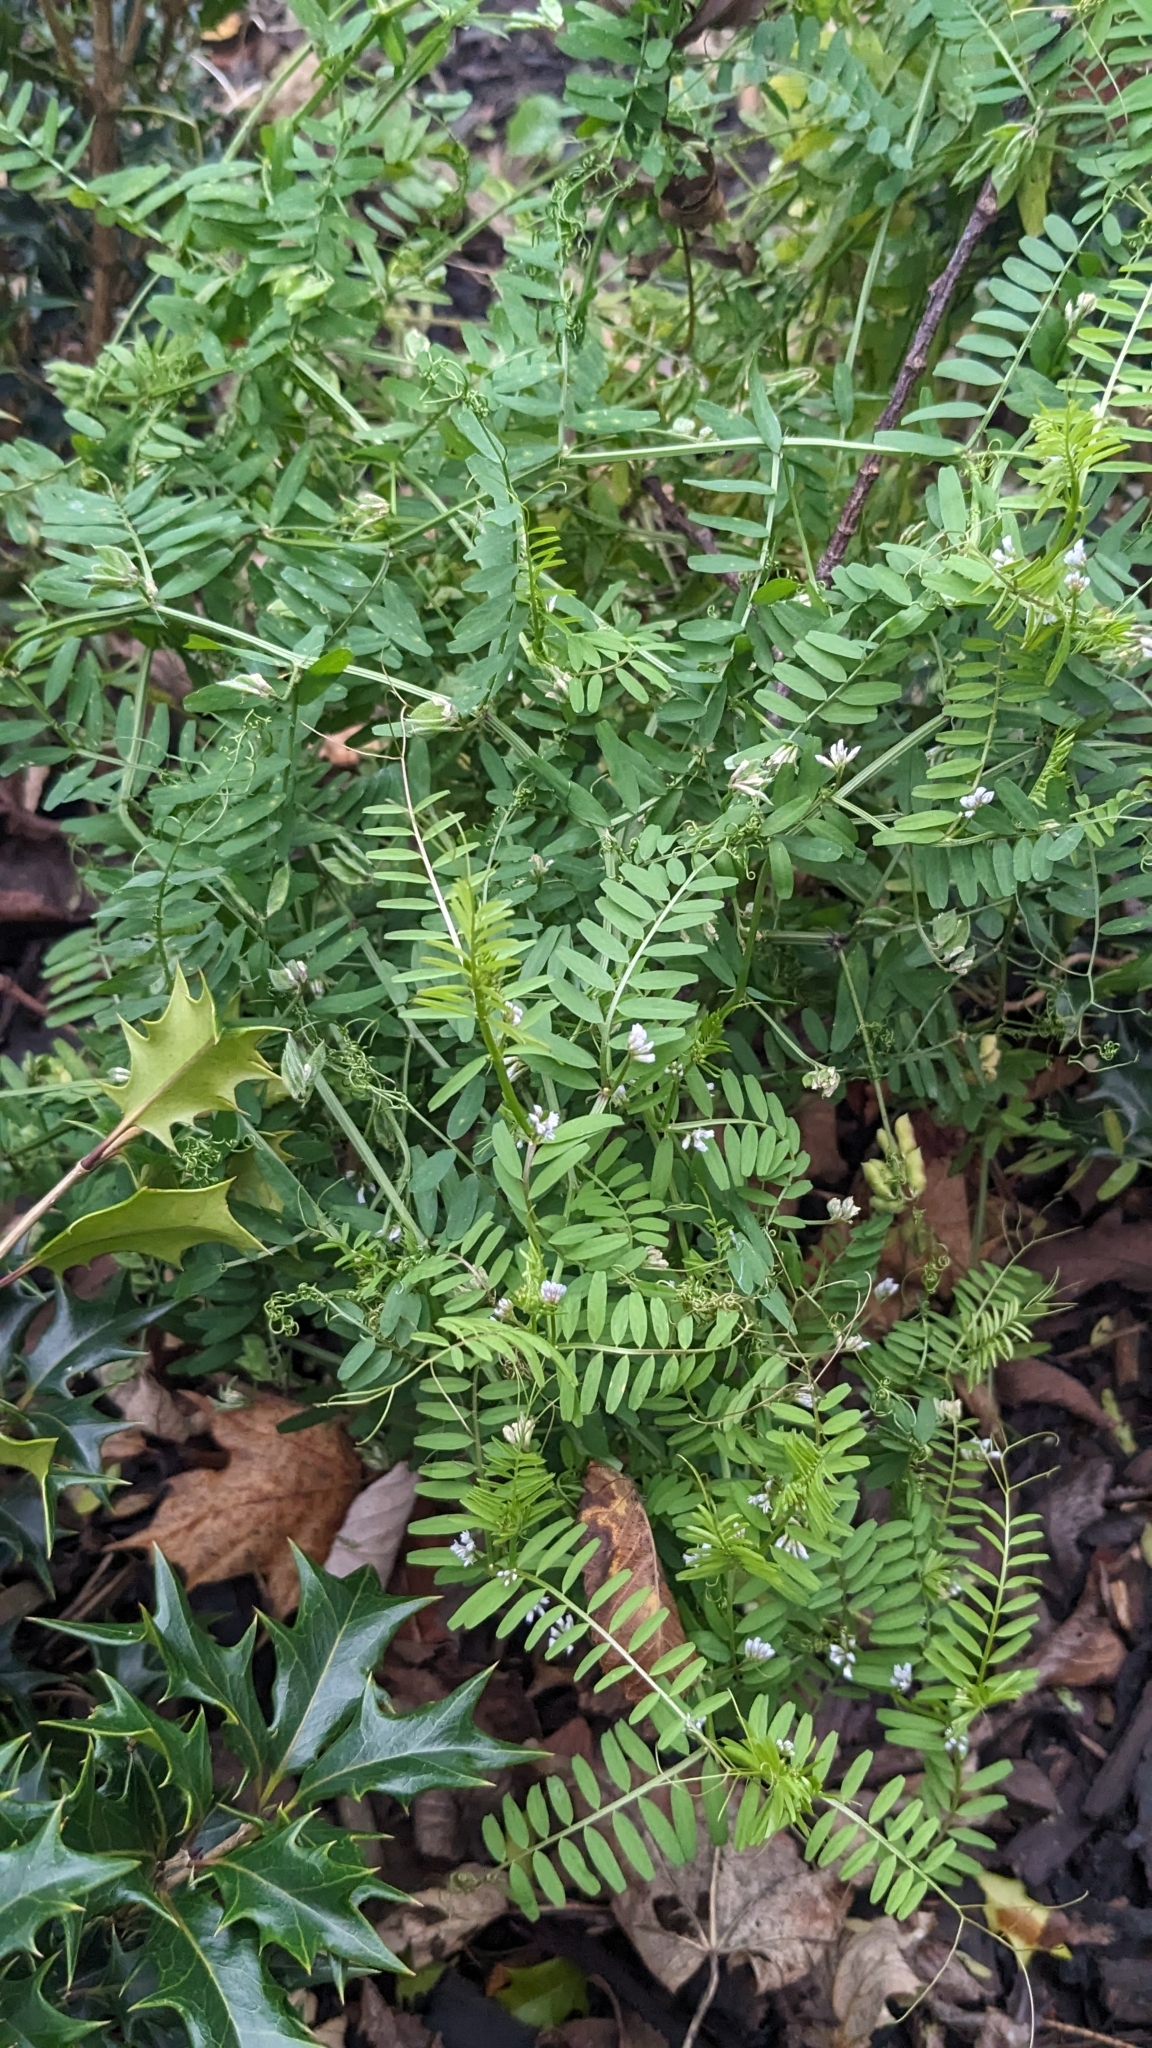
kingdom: Plantae
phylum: Tracheophyta
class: Magnoliopsida
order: Fabales
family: Fabaceae
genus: Vicia
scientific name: Vicia hirsuta
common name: Tiny vetch
